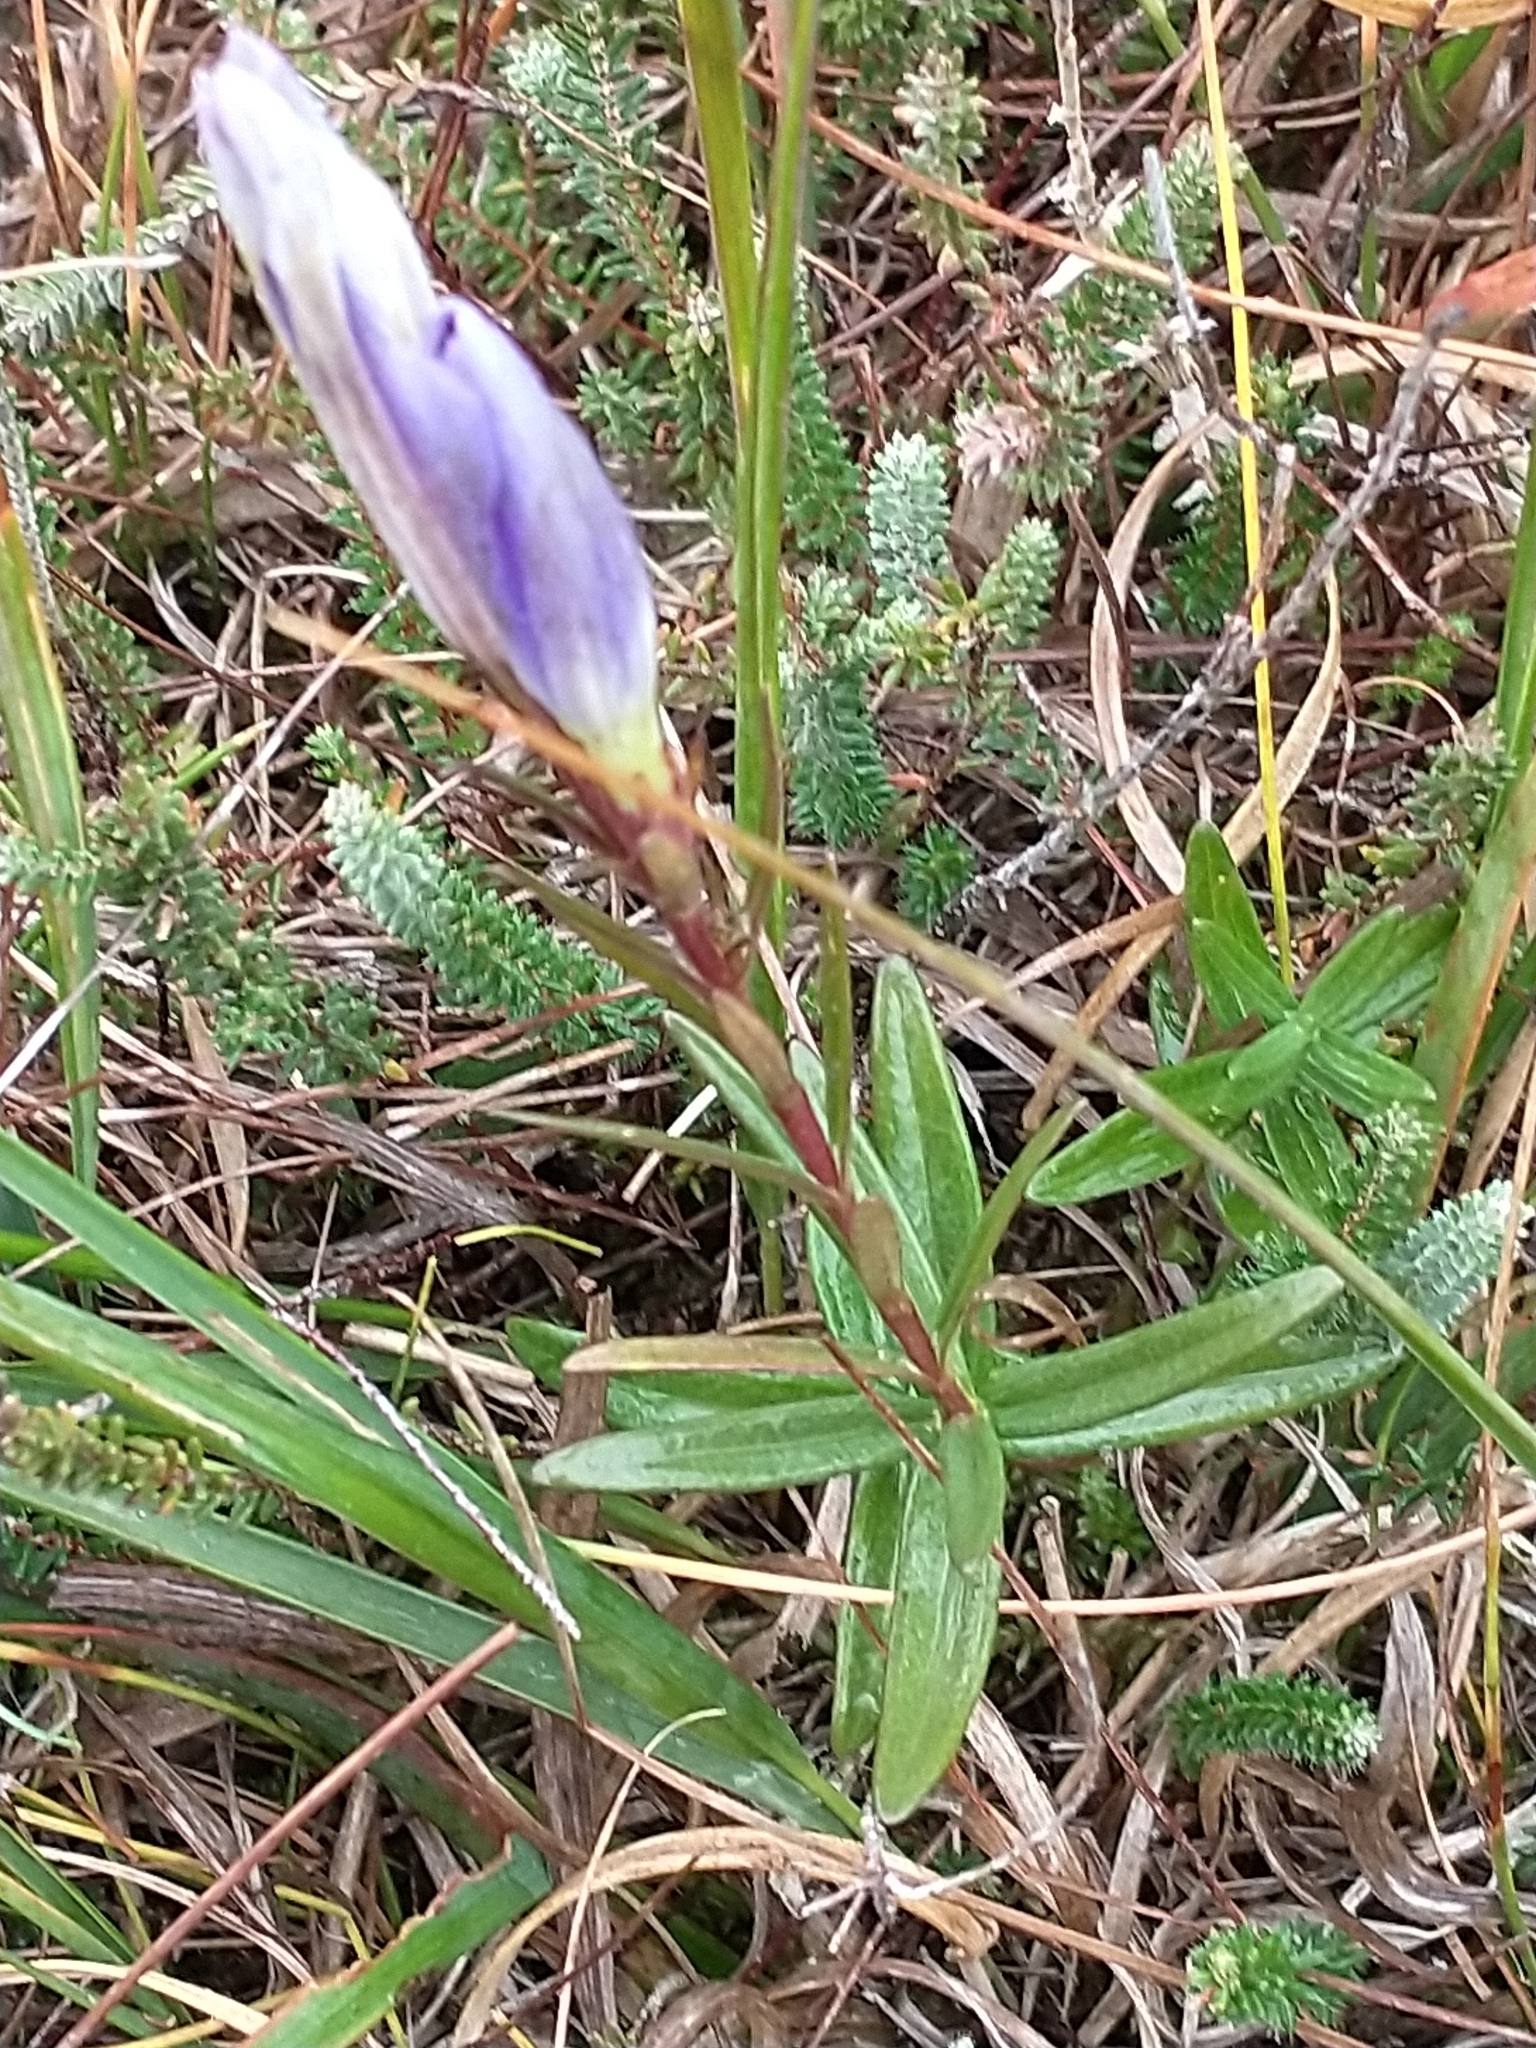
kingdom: Plantae
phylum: Tracheophyta
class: Magnoliopsida
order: Gentianales
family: Gentianaceae
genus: Gentiana
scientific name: Gentiana pneumonanthe
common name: Marsh gentian
